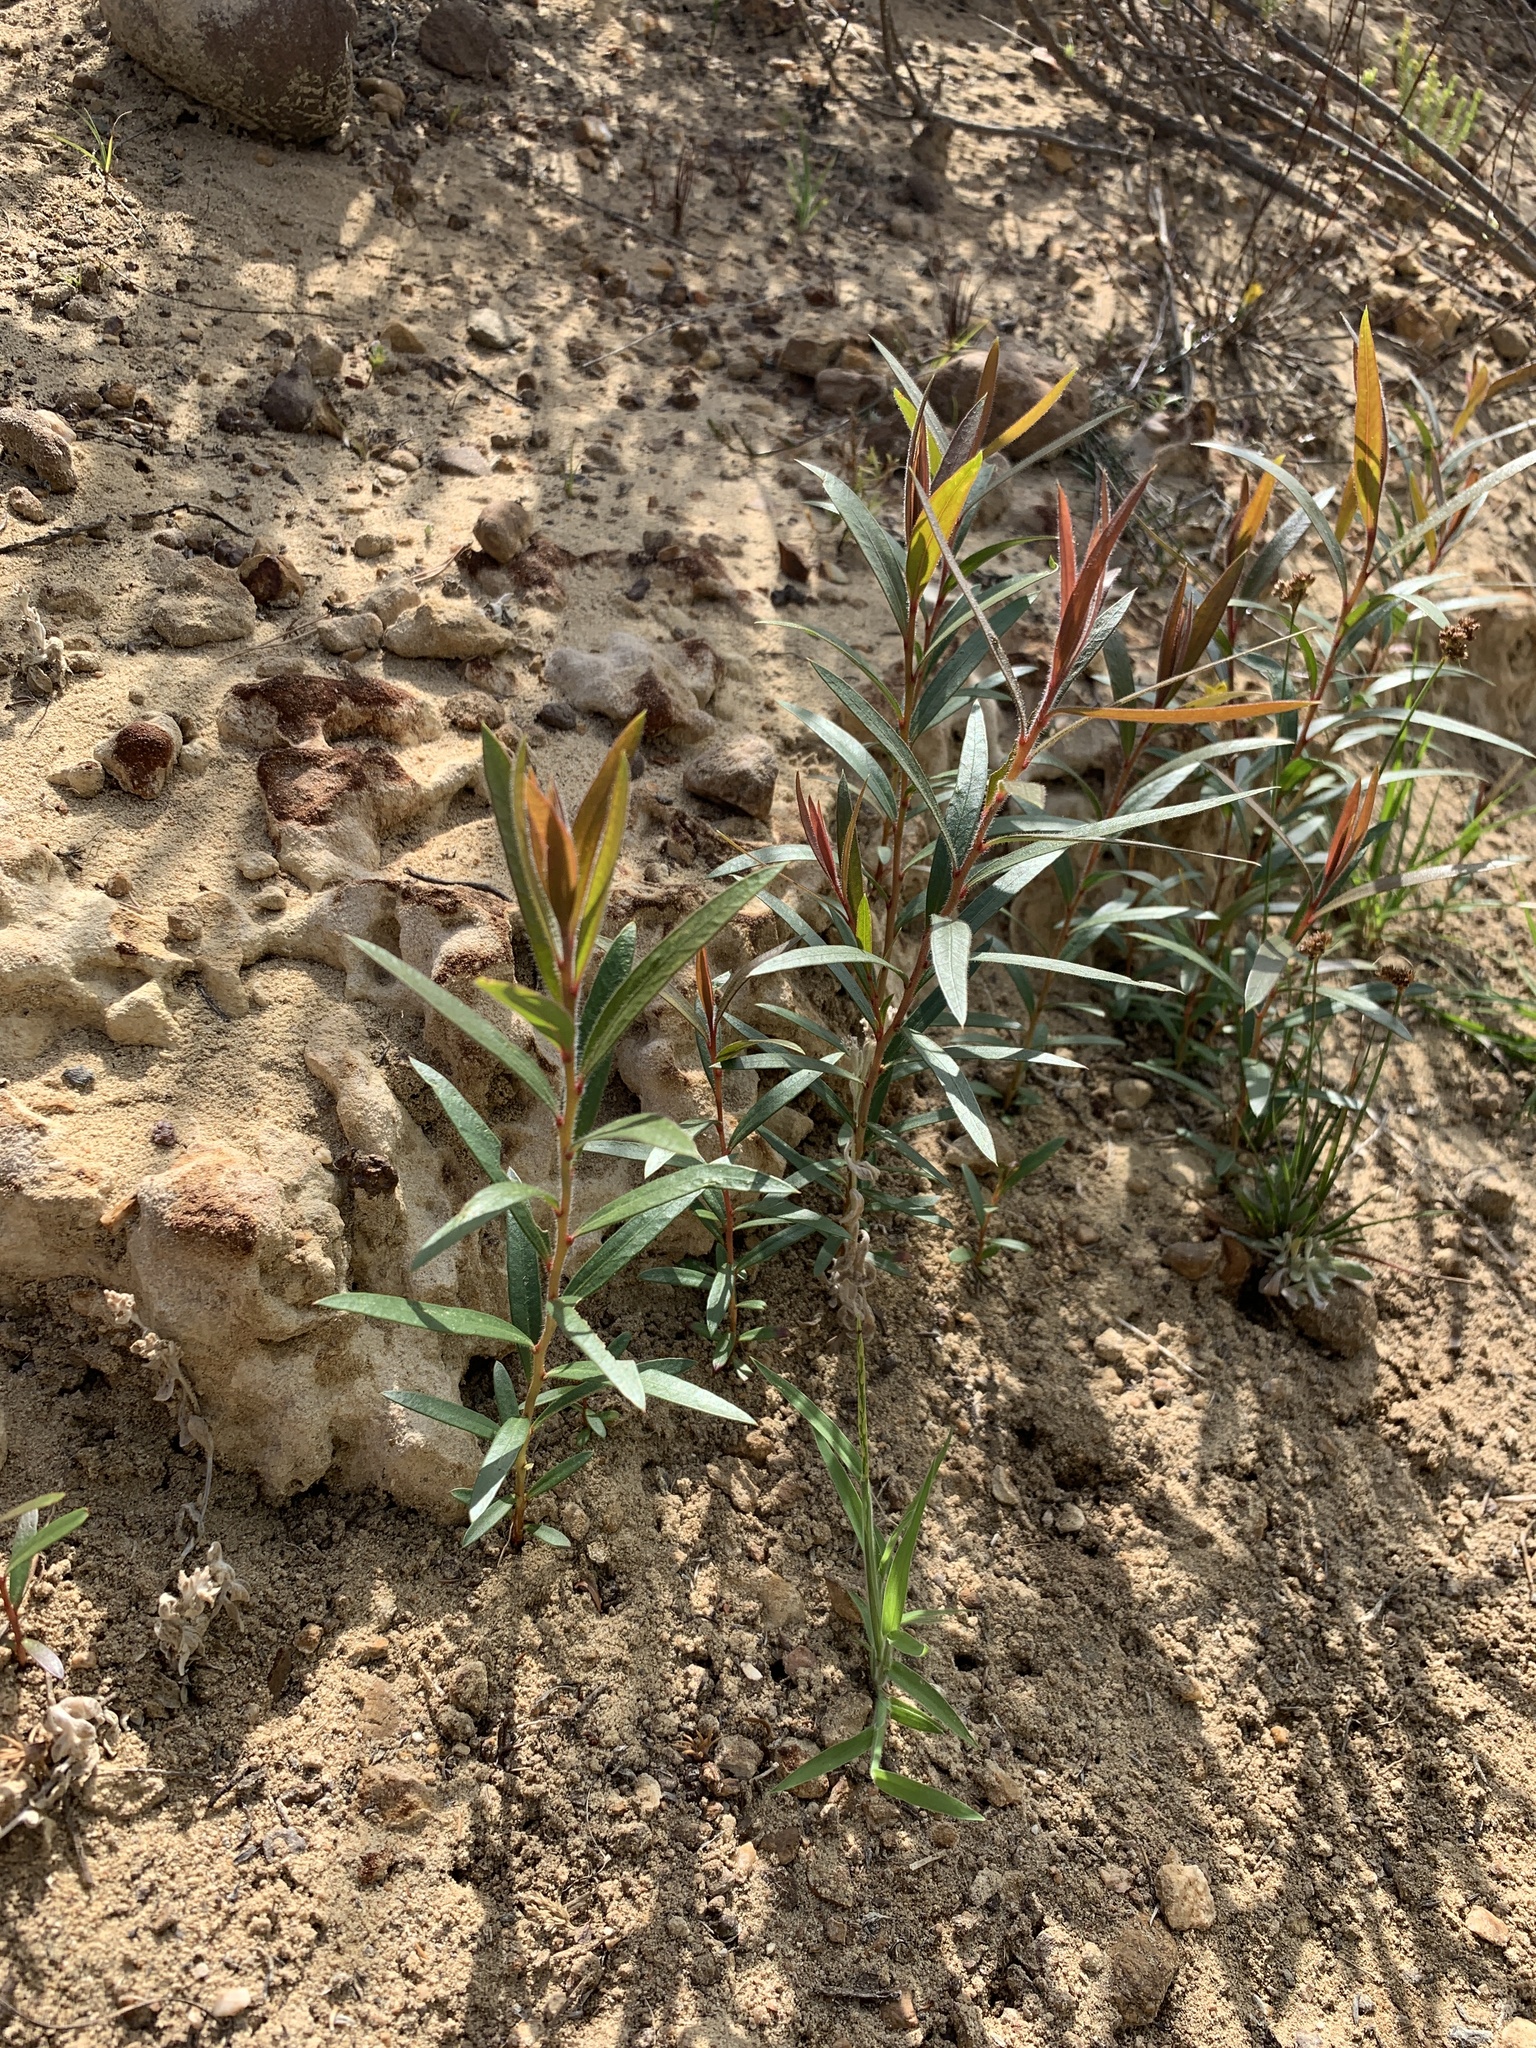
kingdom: Plantae
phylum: Tracheophyta
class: Magnoliopsida
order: Myrtales
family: Myrtaceae
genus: Callistemon
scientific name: Callistemon viminalis
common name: Drooping bottlebrush
